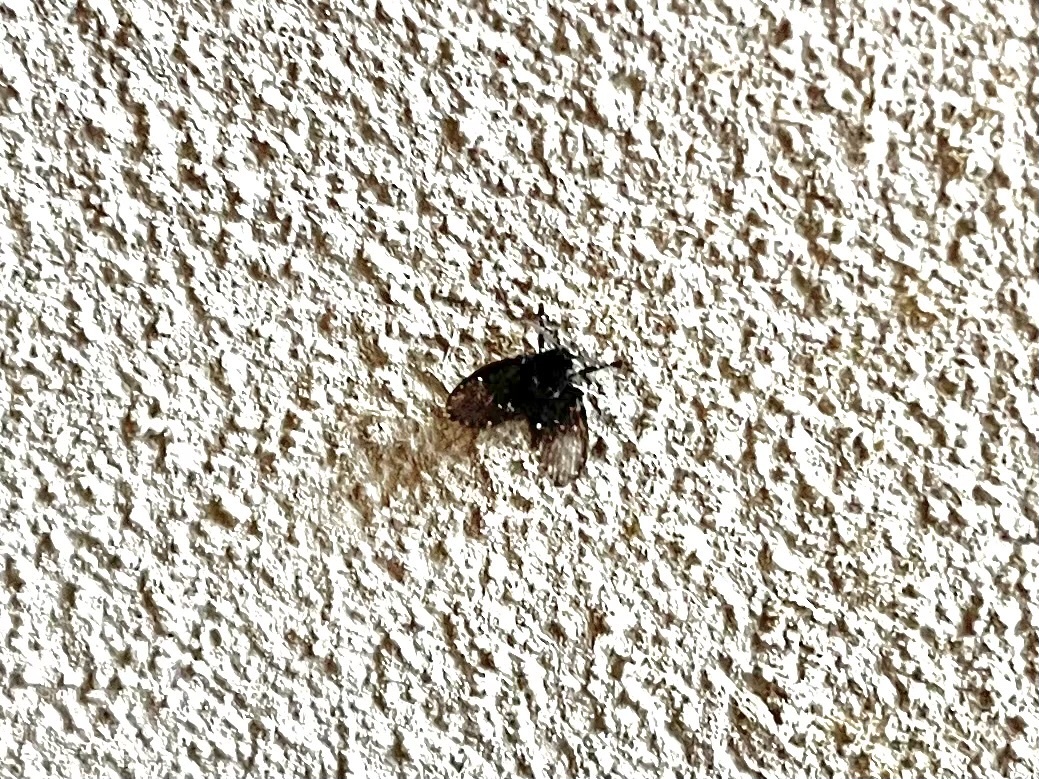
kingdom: Animalia
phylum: Arthropoda
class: Insecta
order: Diptera
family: Psychodidae
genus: Clogmia
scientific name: Clogmia albipunctatus
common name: White-spotted moth fly
